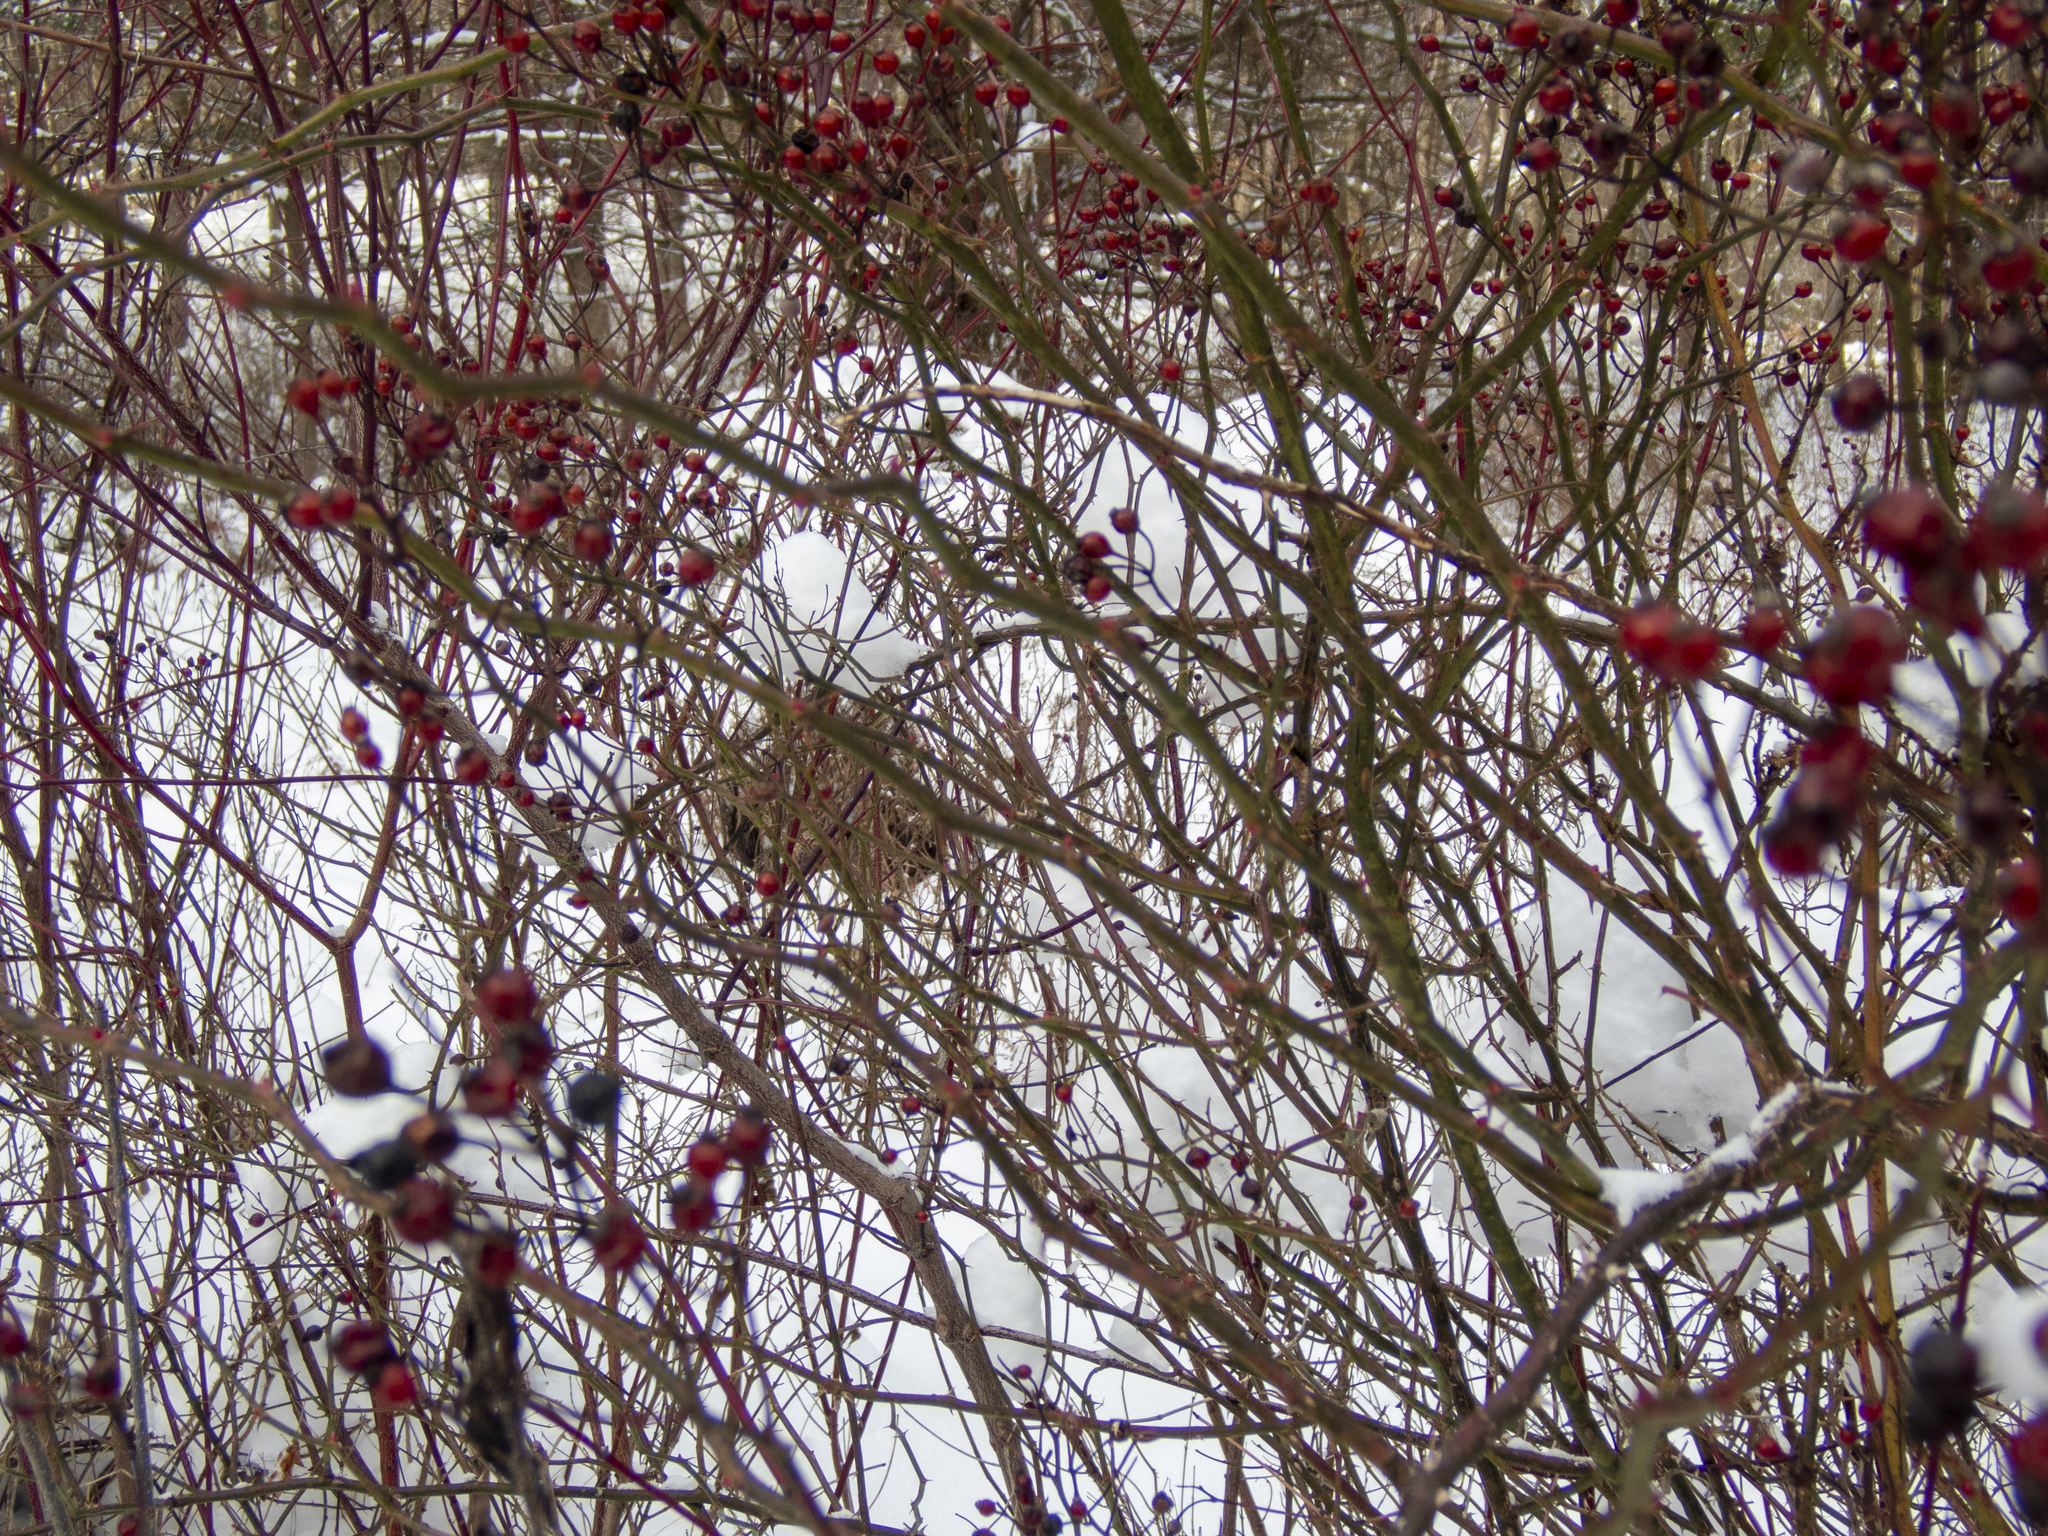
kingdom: Plantae
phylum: Tracheophyta
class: Magnoliopsida
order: Rosales
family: Rosaceae
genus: Rosa
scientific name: Rosa multiflora
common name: Multiflora rose
